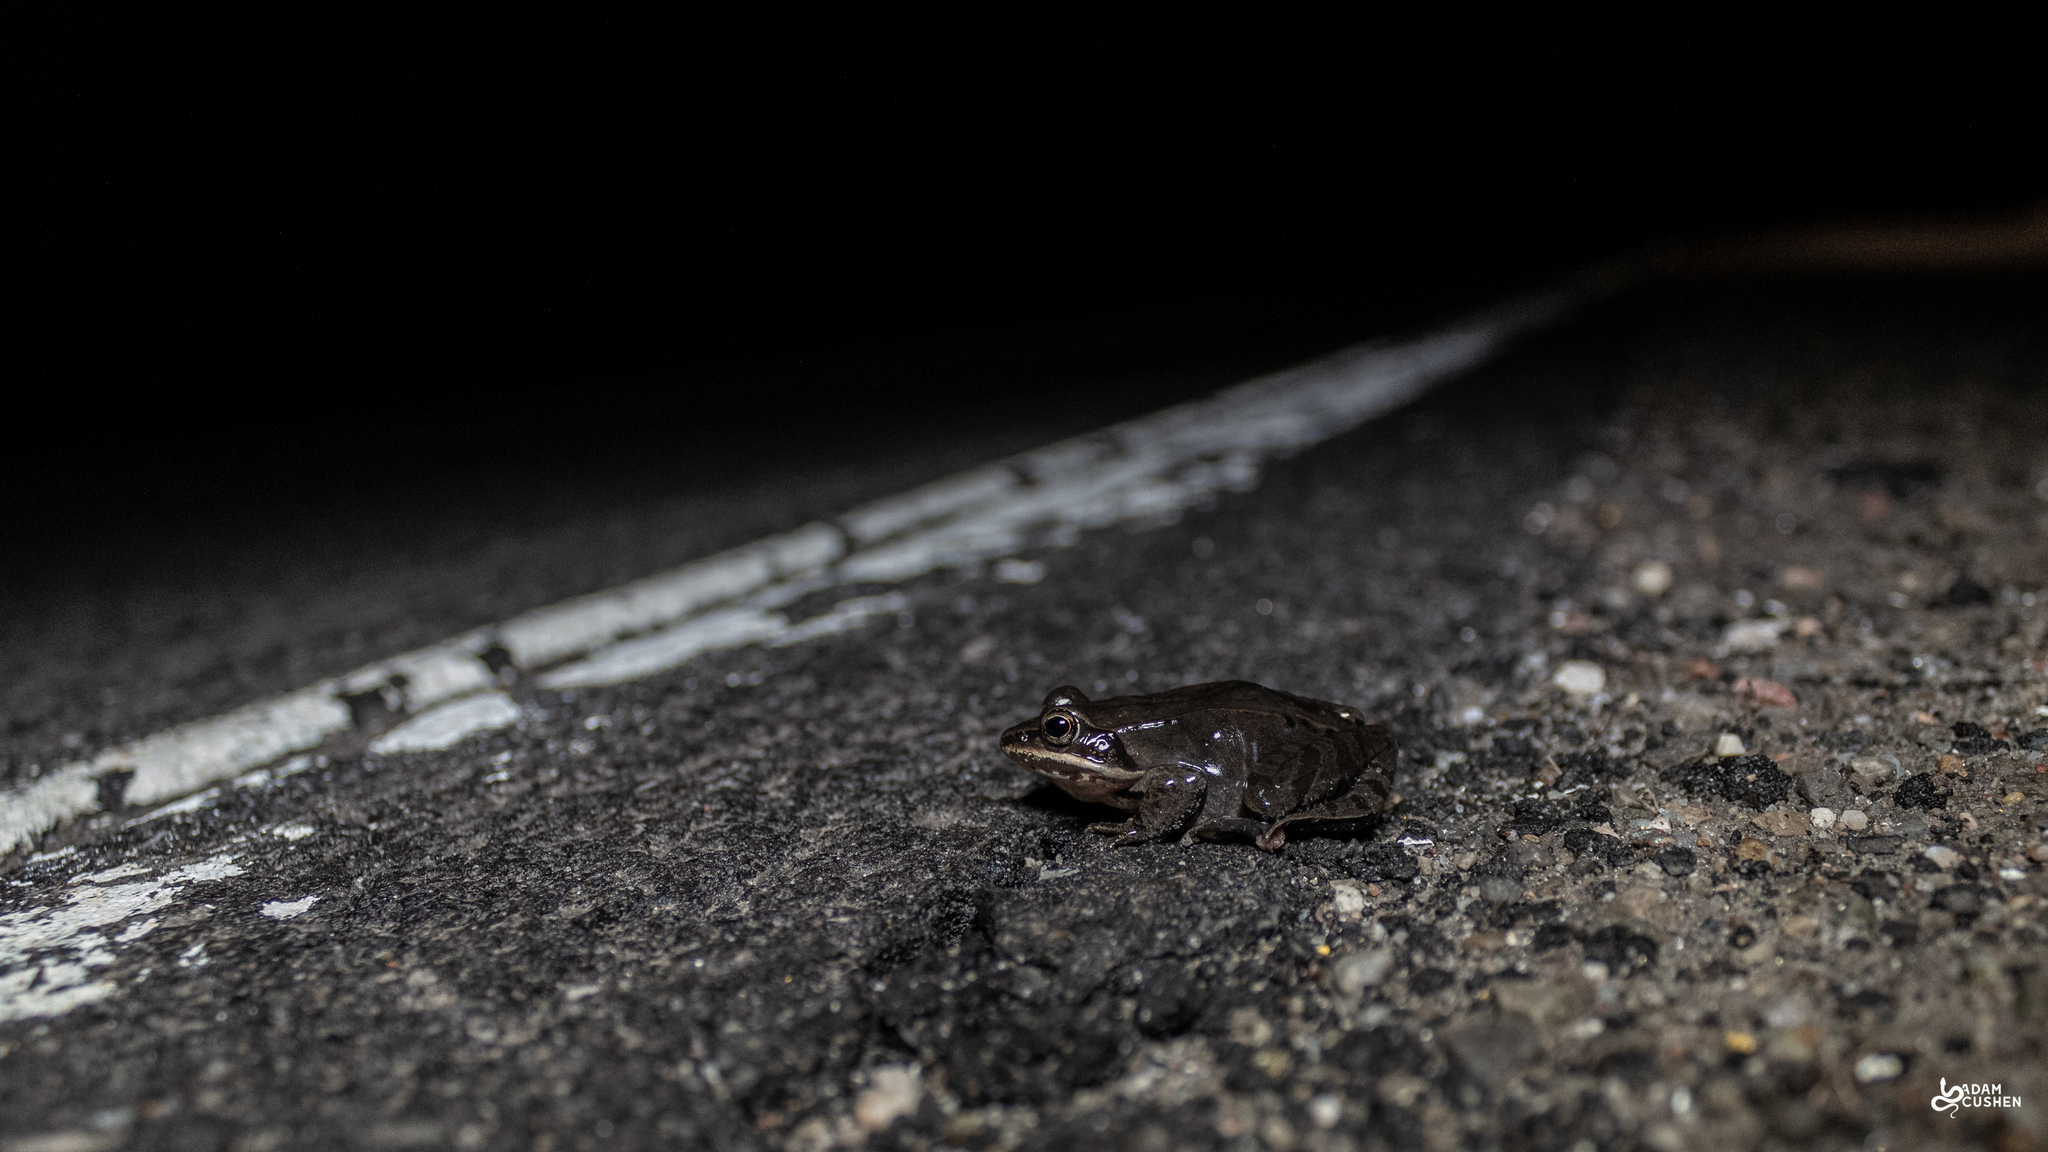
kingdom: Animalia
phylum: Chordata
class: Amphibia
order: Anura
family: Ranidae
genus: Lithobates
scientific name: Lithobates sylvaticus
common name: Wood frog
